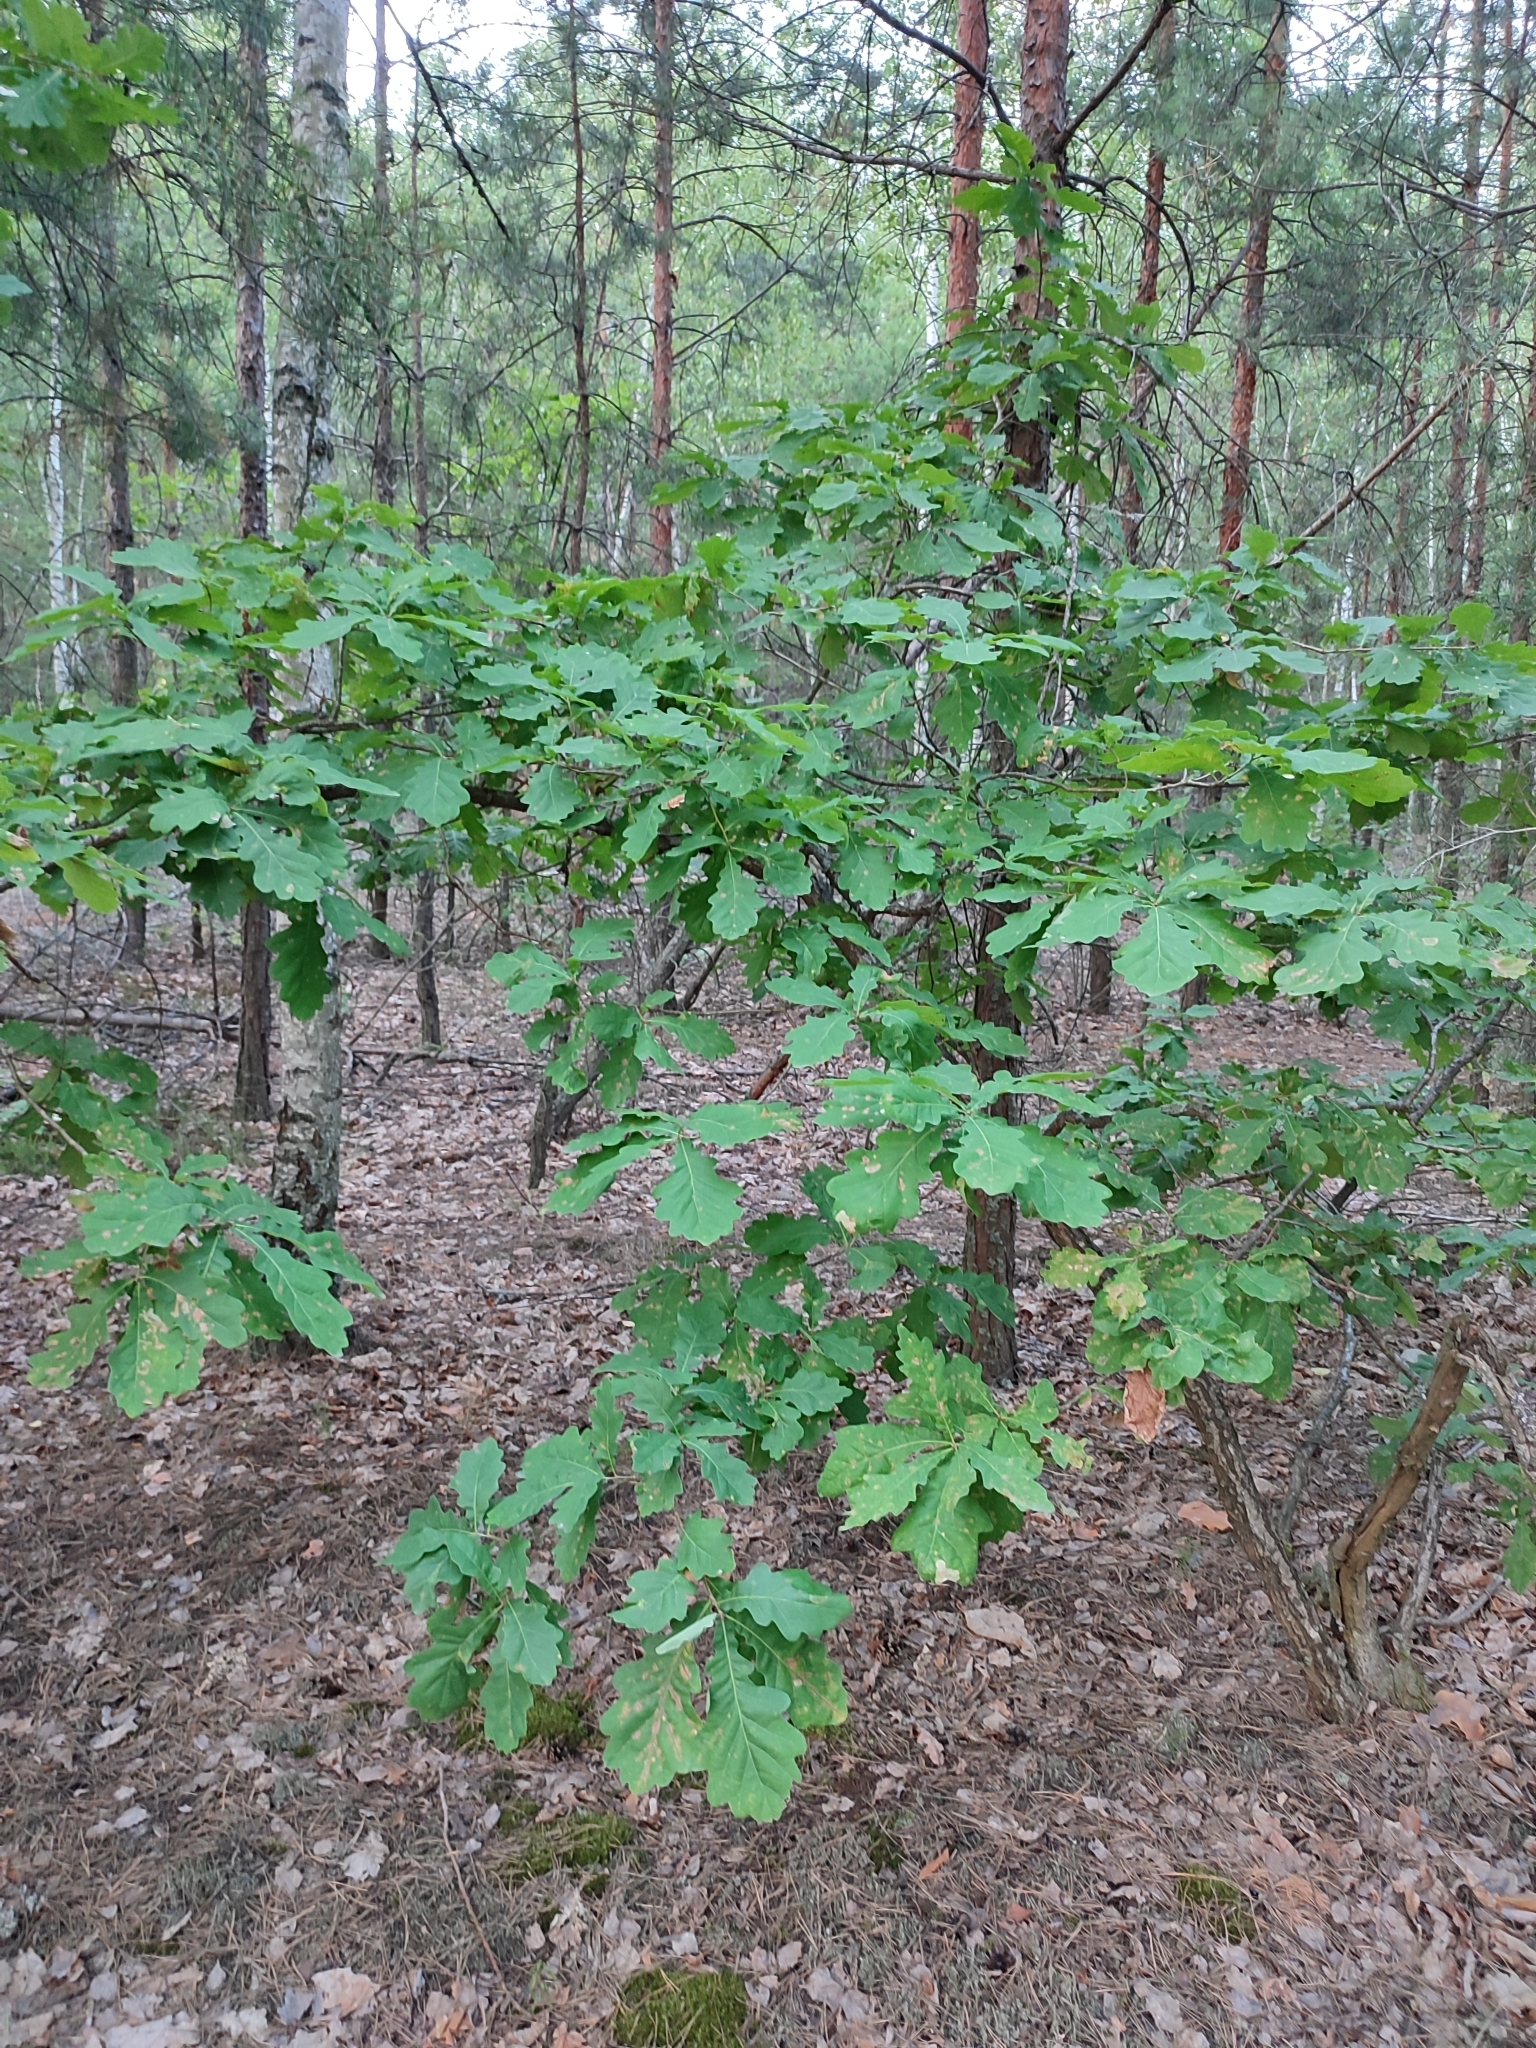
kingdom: Plantae
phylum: Tracheophyta
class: Magnoliopsida
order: Fagales
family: Fagaceae
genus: Quercus
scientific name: Quercus robur
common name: Pedunculate oak
